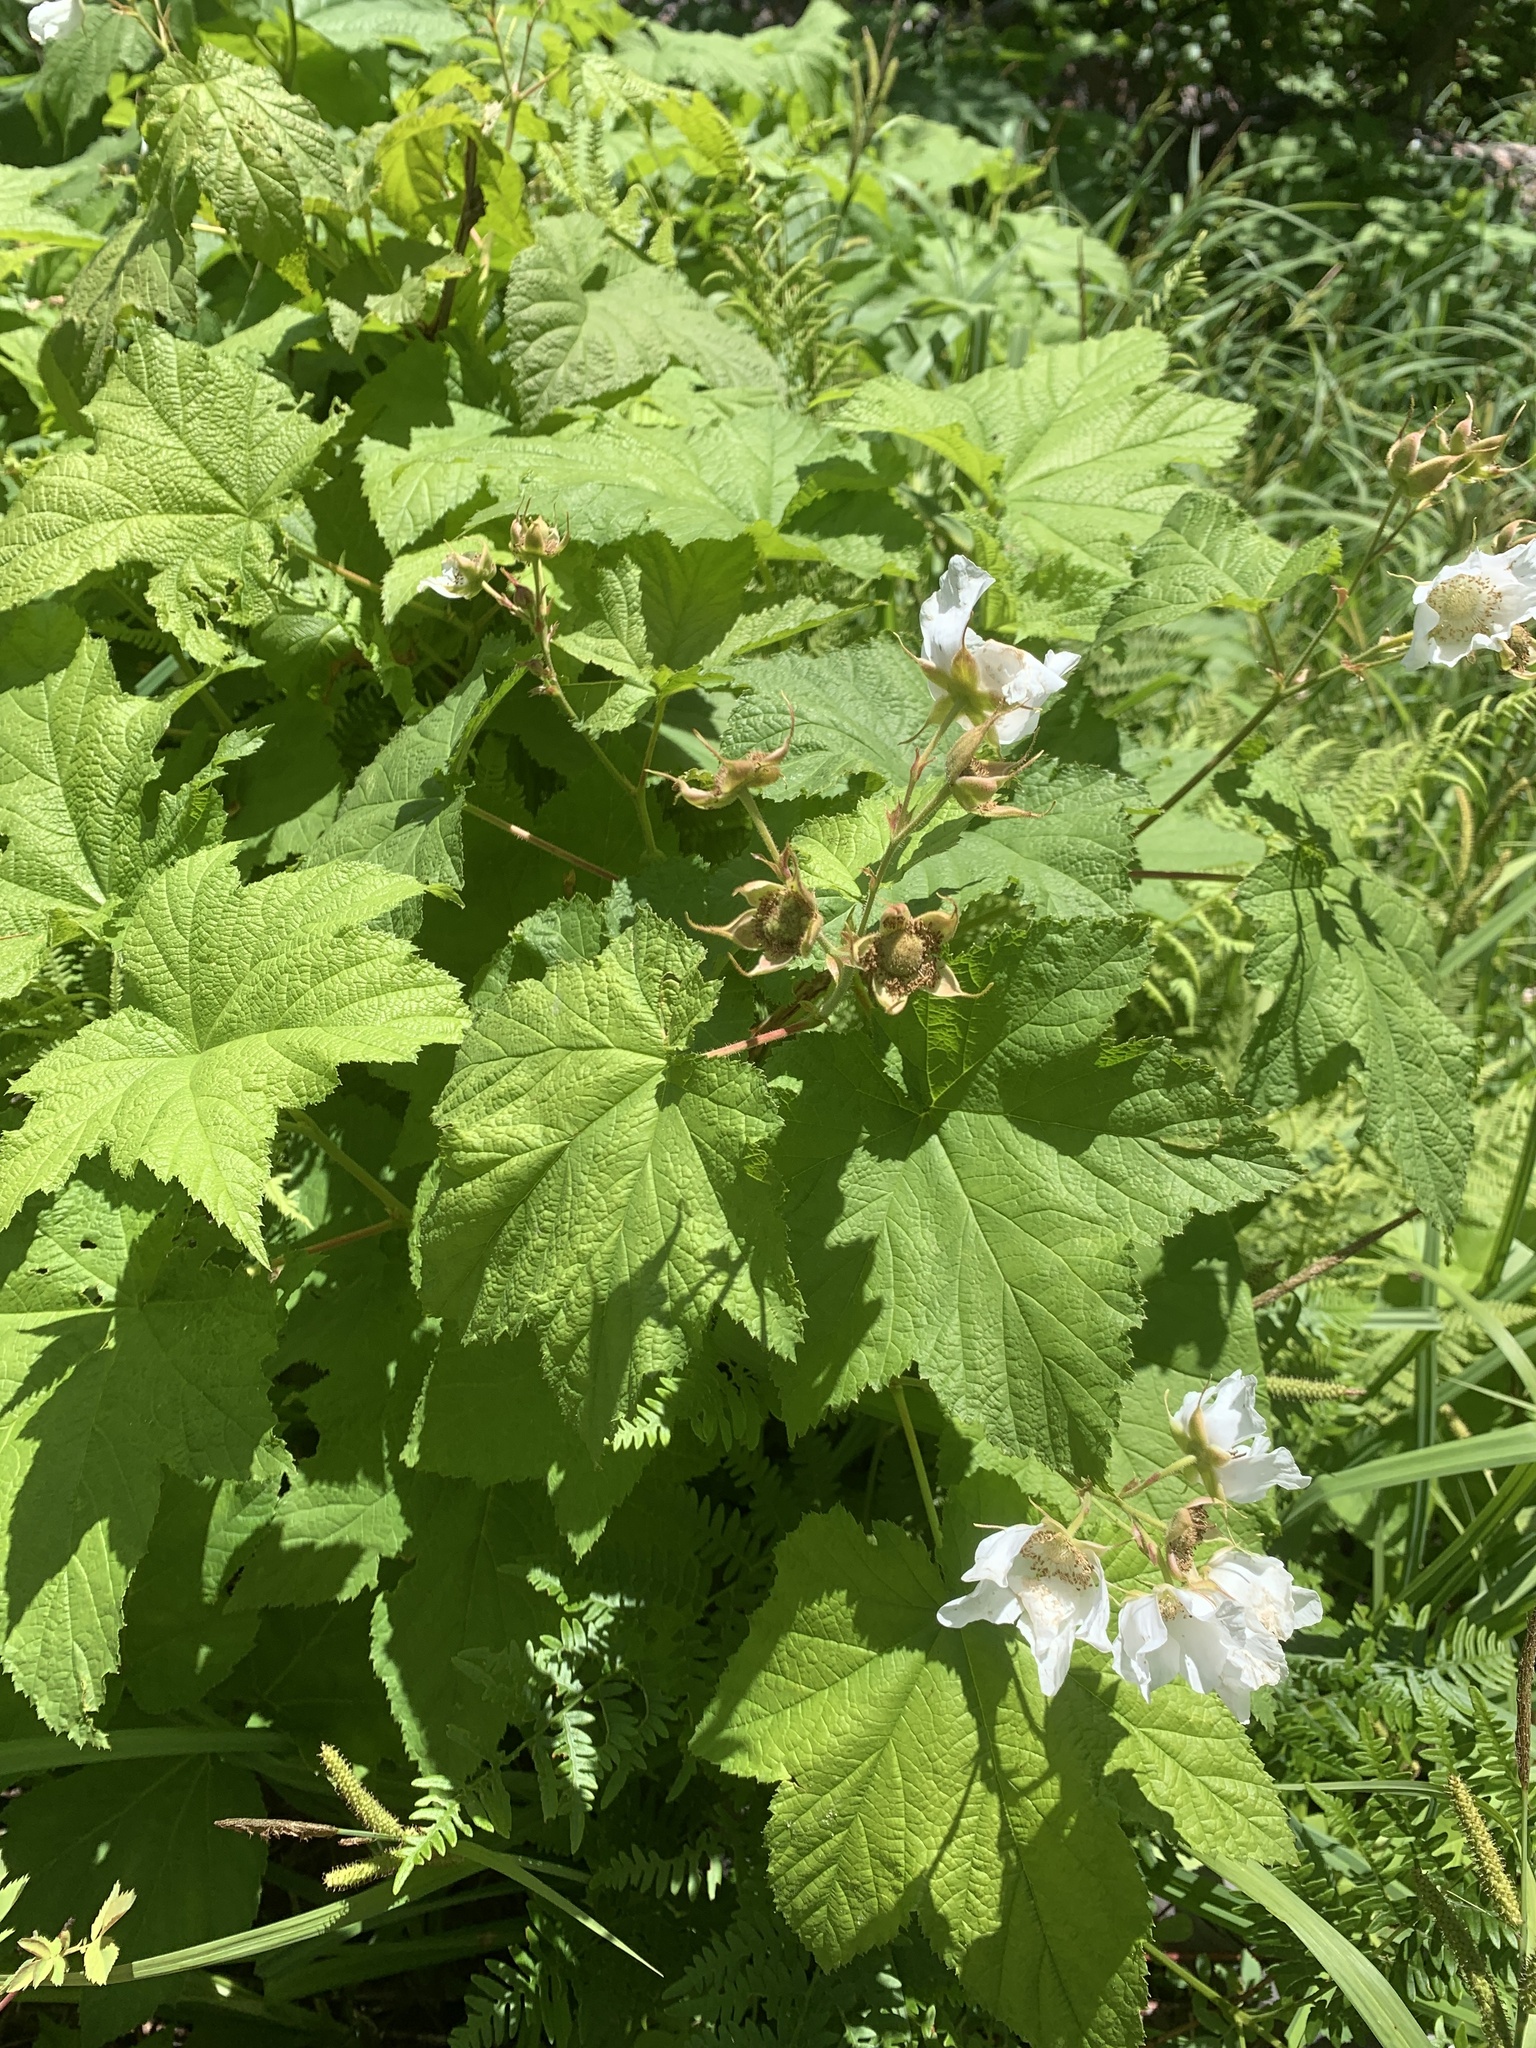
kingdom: Plantae
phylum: Tracheophyta
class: Magnoliopsida
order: Rosales
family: Rosaceae
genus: Rubus
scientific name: Rubus parviflorus
